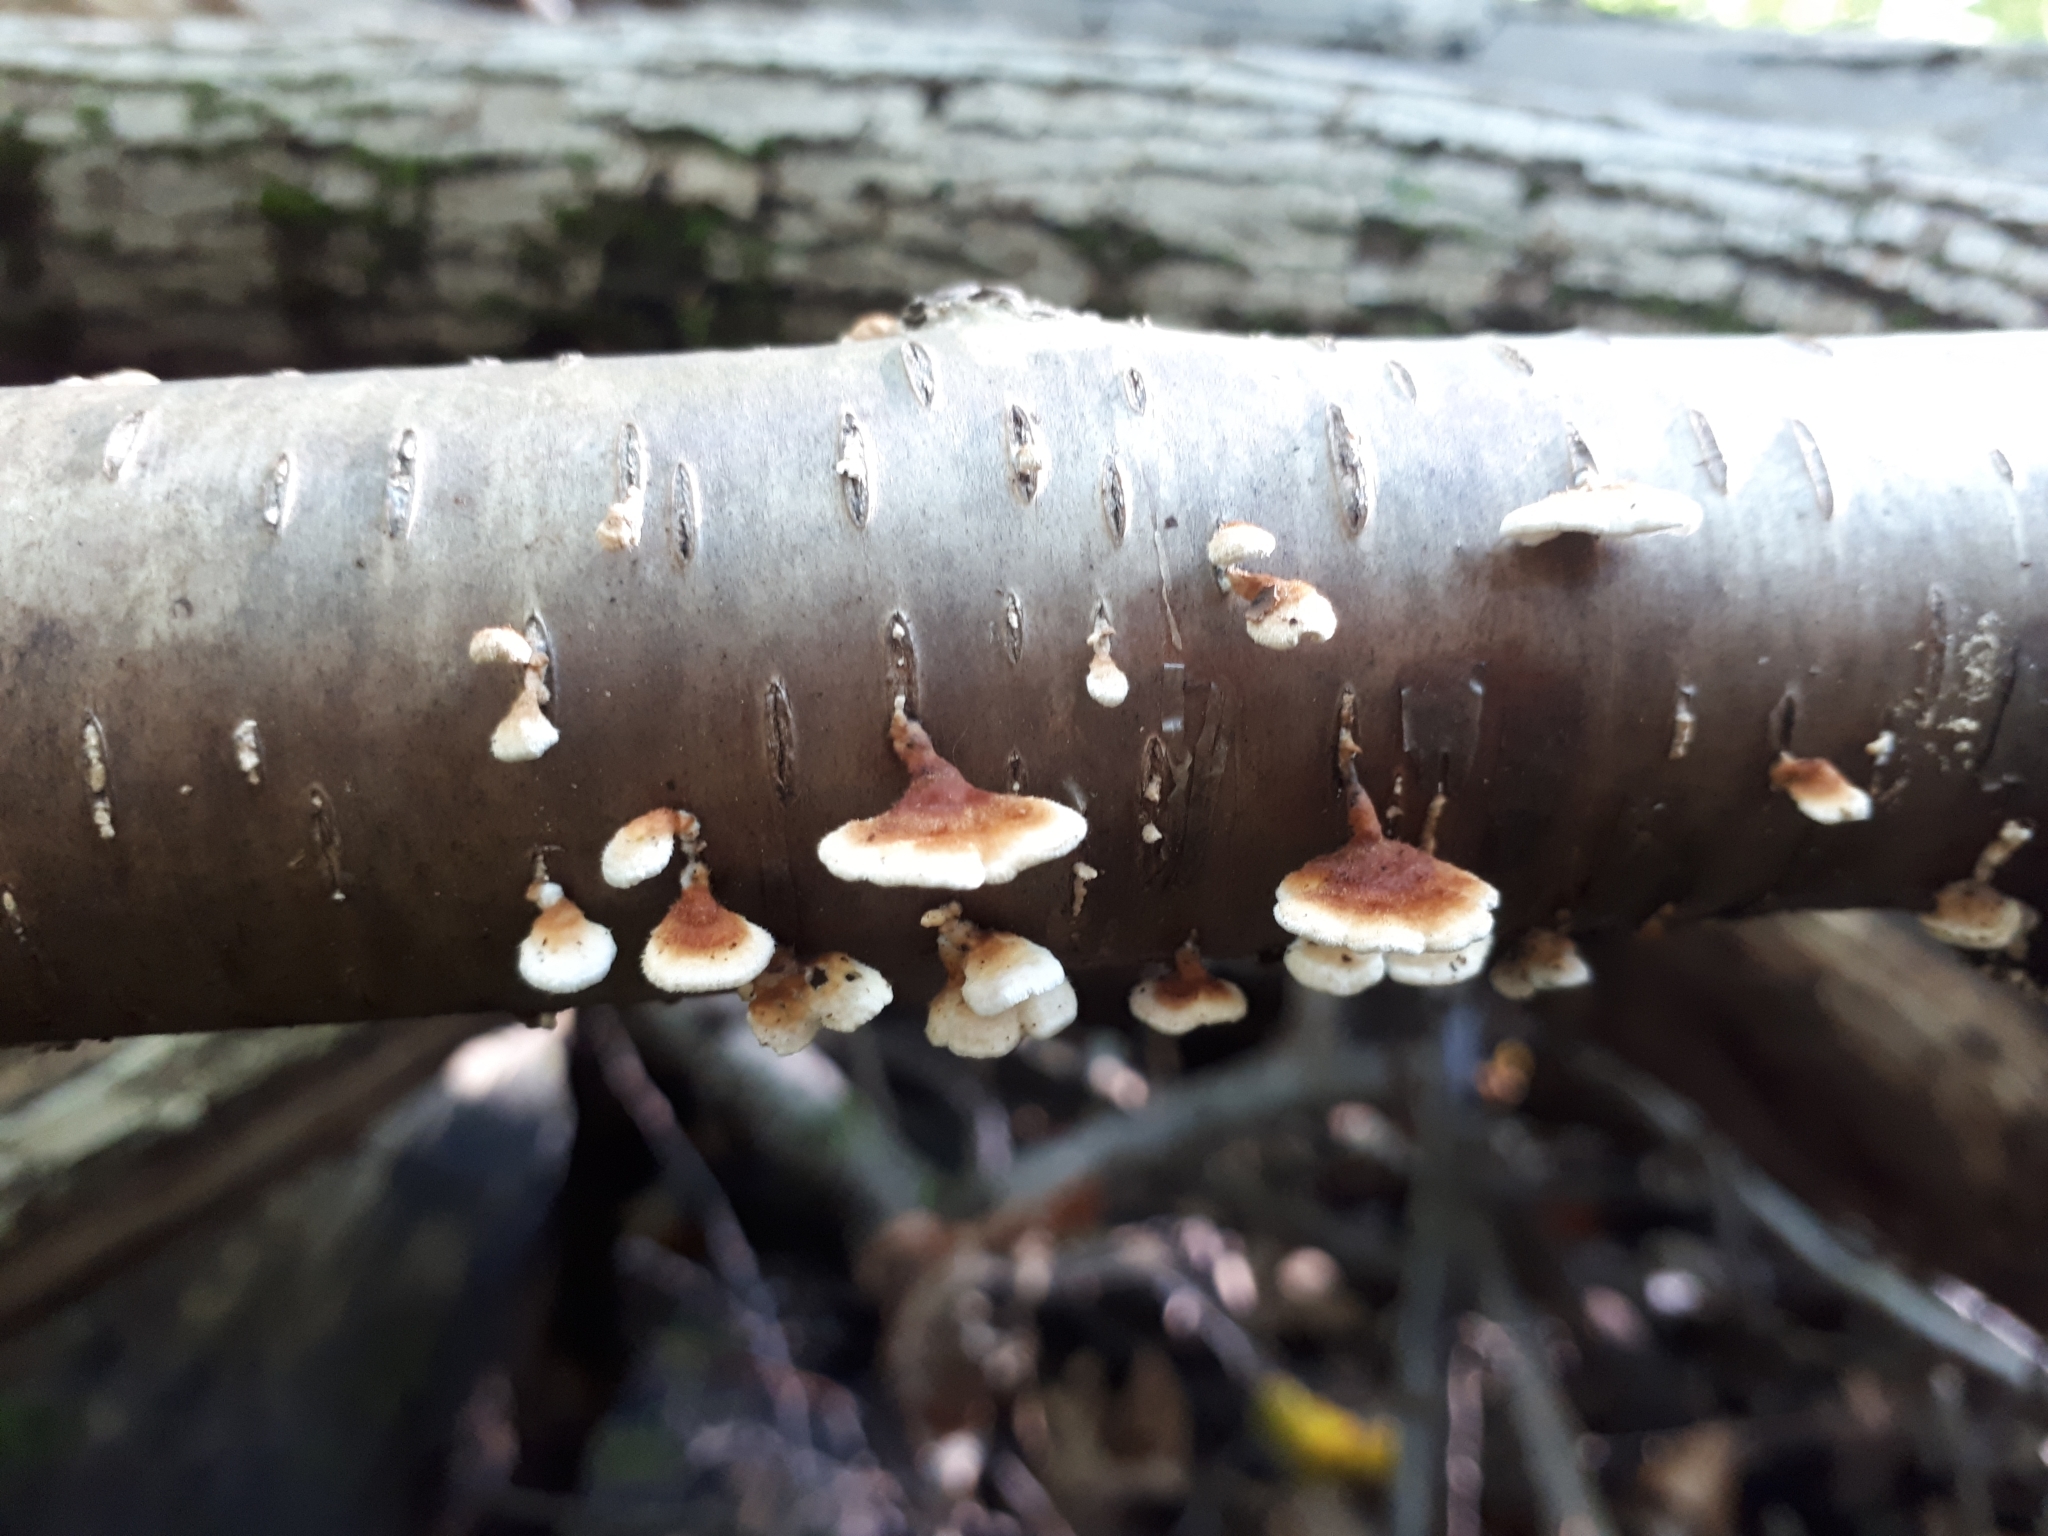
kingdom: Fungi
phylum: Basidiomycota
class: Agaricomycetes
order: Amylocorticiales
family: Amylocorticiaceae
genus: Plicaturopsis
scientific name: Plicaturopsis crispa
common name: Crimped gill
